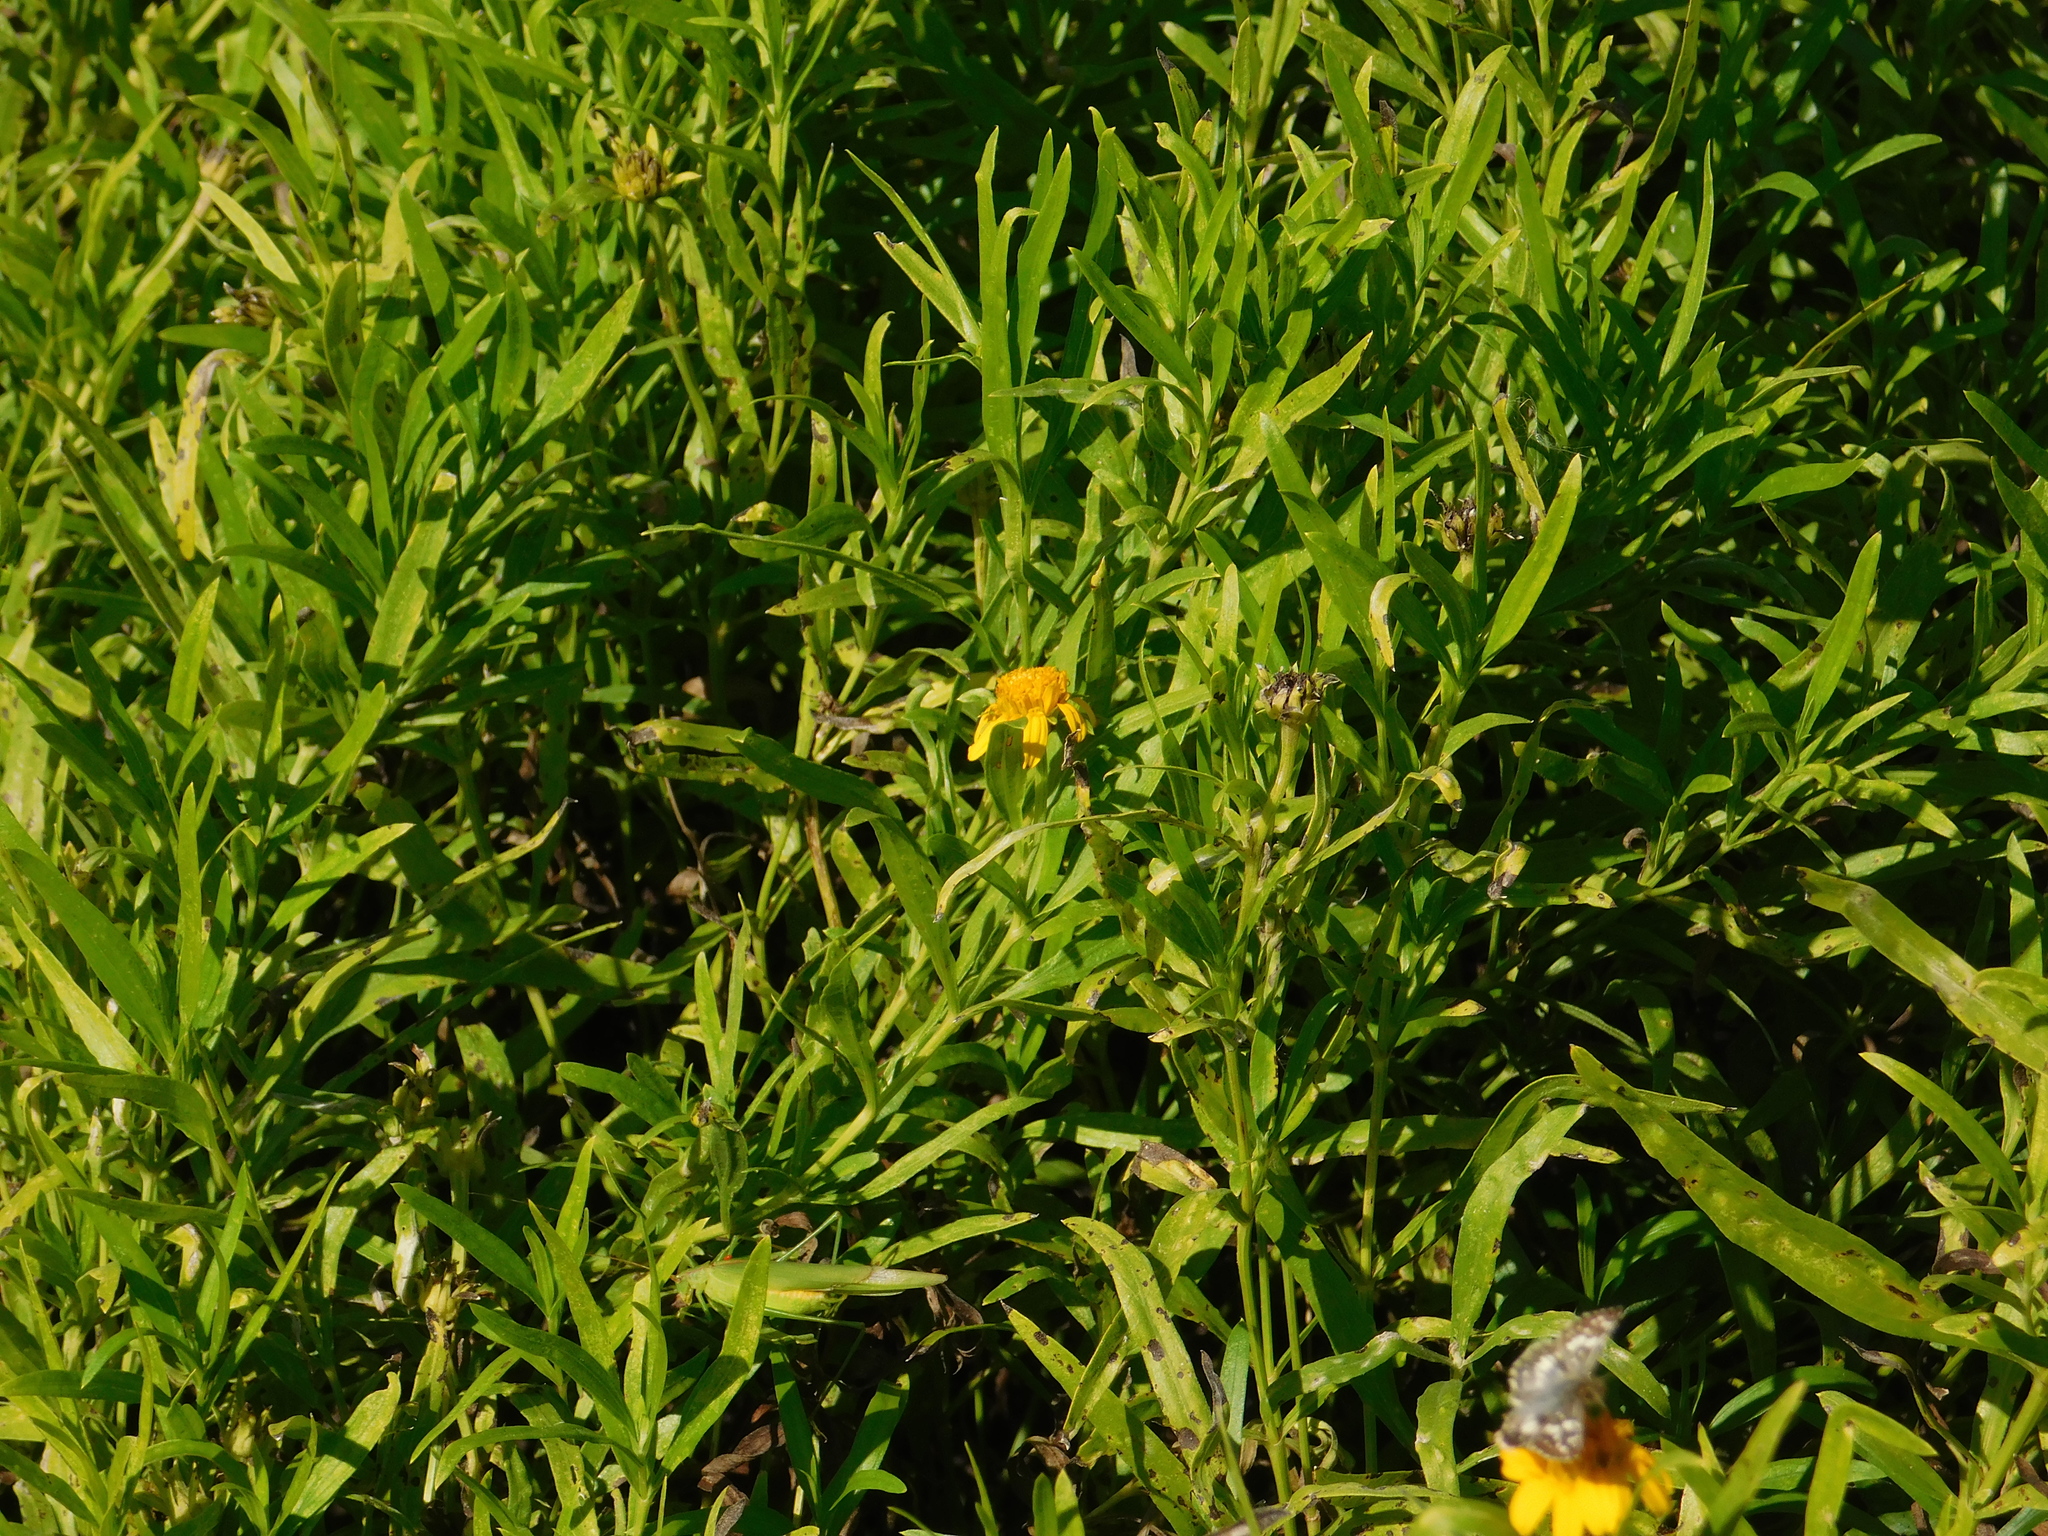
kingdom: Animalia
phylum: Arthropoda
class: Insecta
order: Orthoptera
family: Tettigoniidae
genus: Ligocatinus
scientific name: Ligocatinus spinatus
